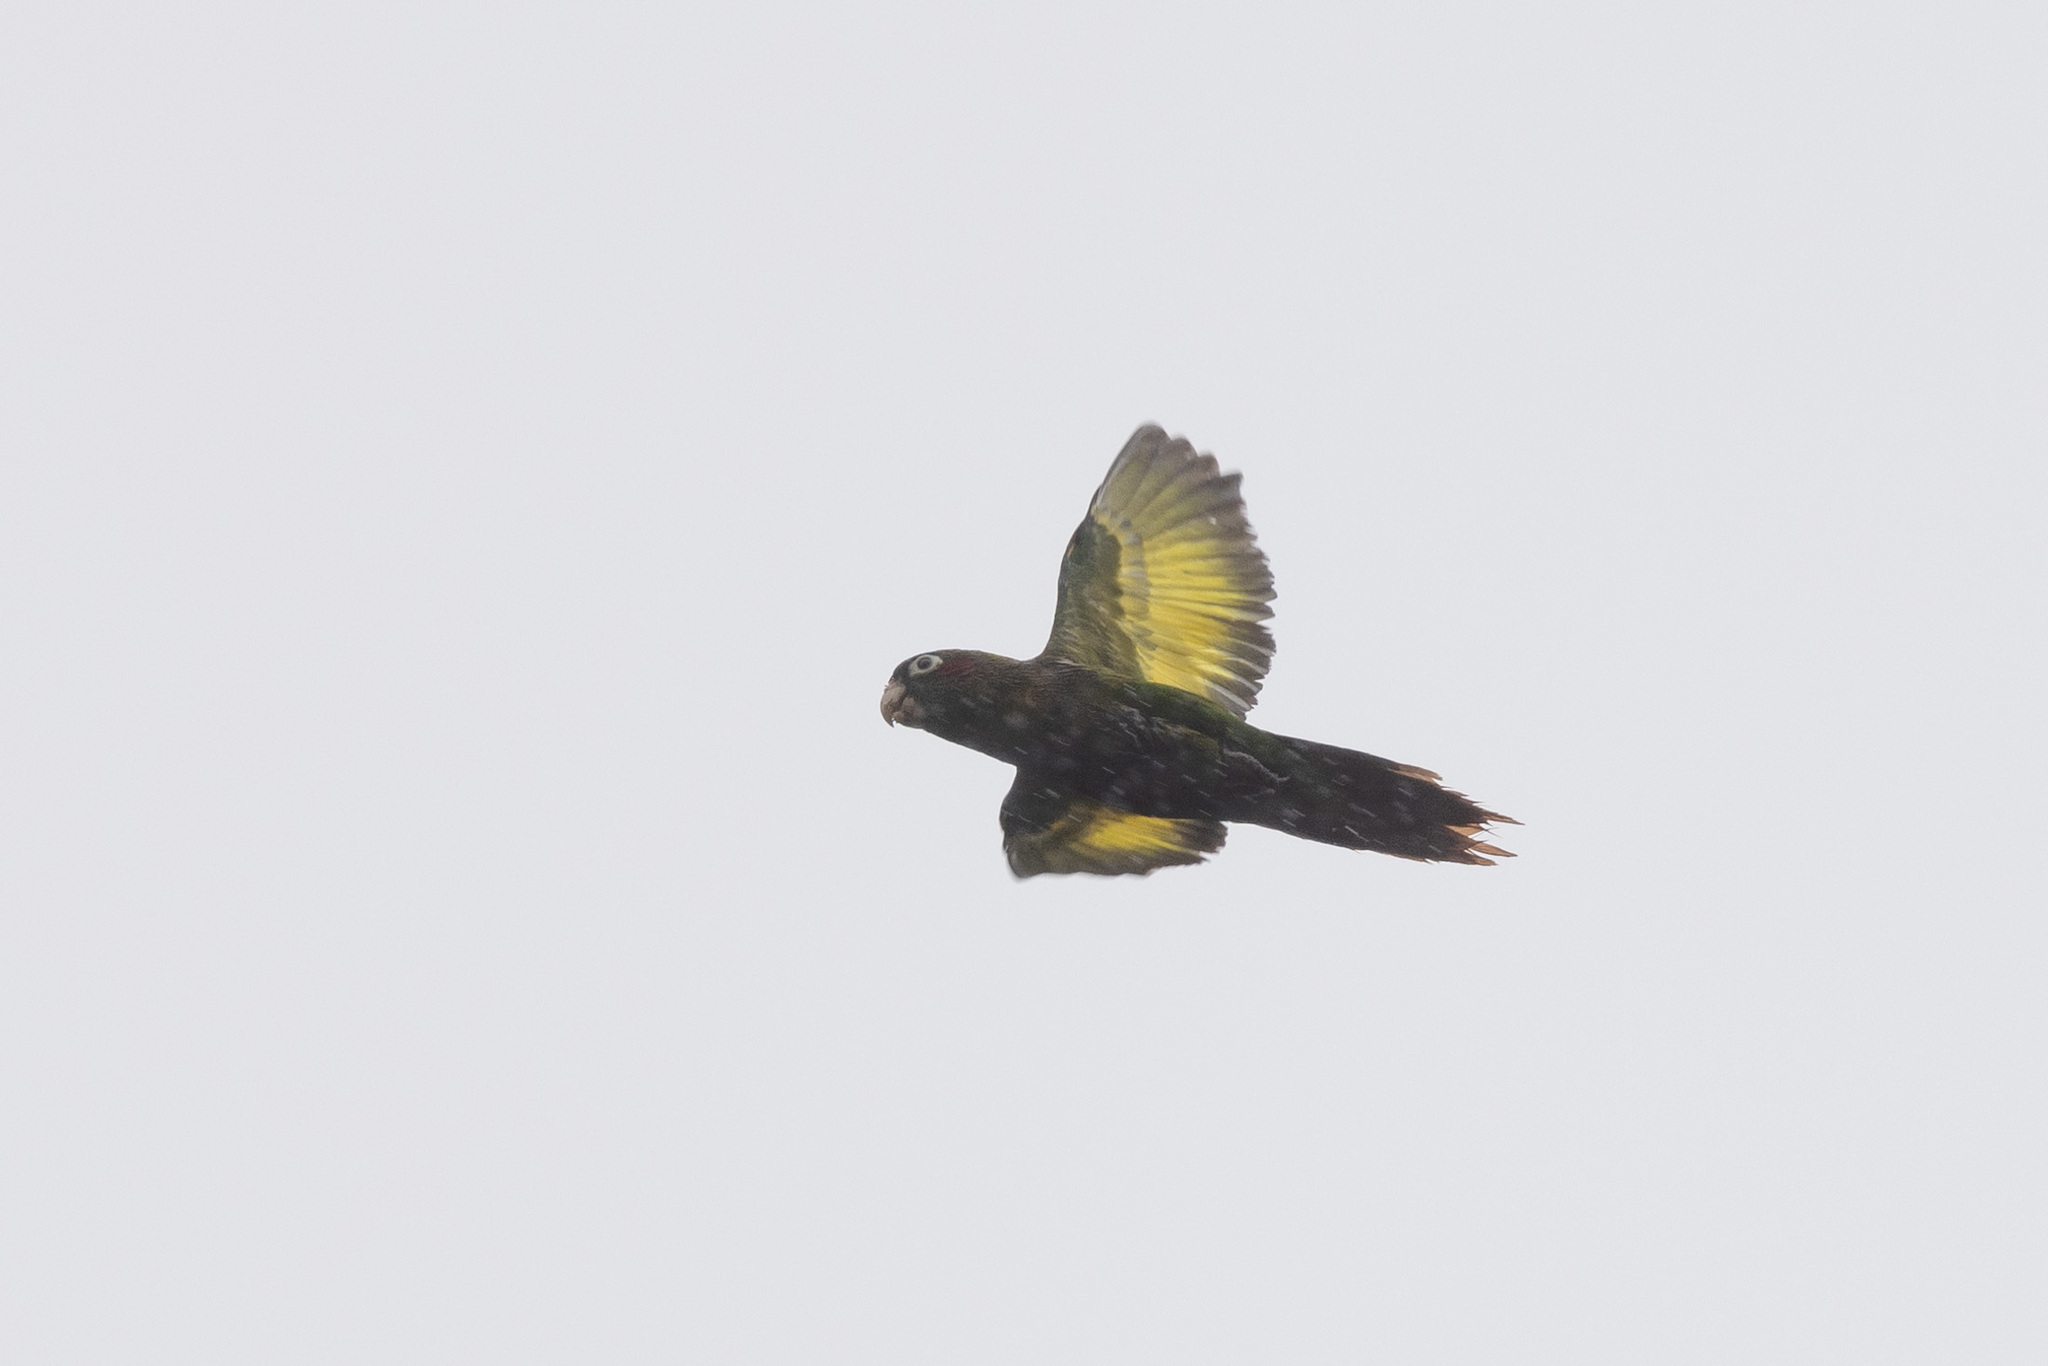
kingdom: Animalia
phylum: Chordata
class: Aves
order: Psittaciformes
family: Psittacidae
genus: Pyrrhura
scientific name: Pyrrhura hoffmanni
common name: Sulphur-winged parakeet
